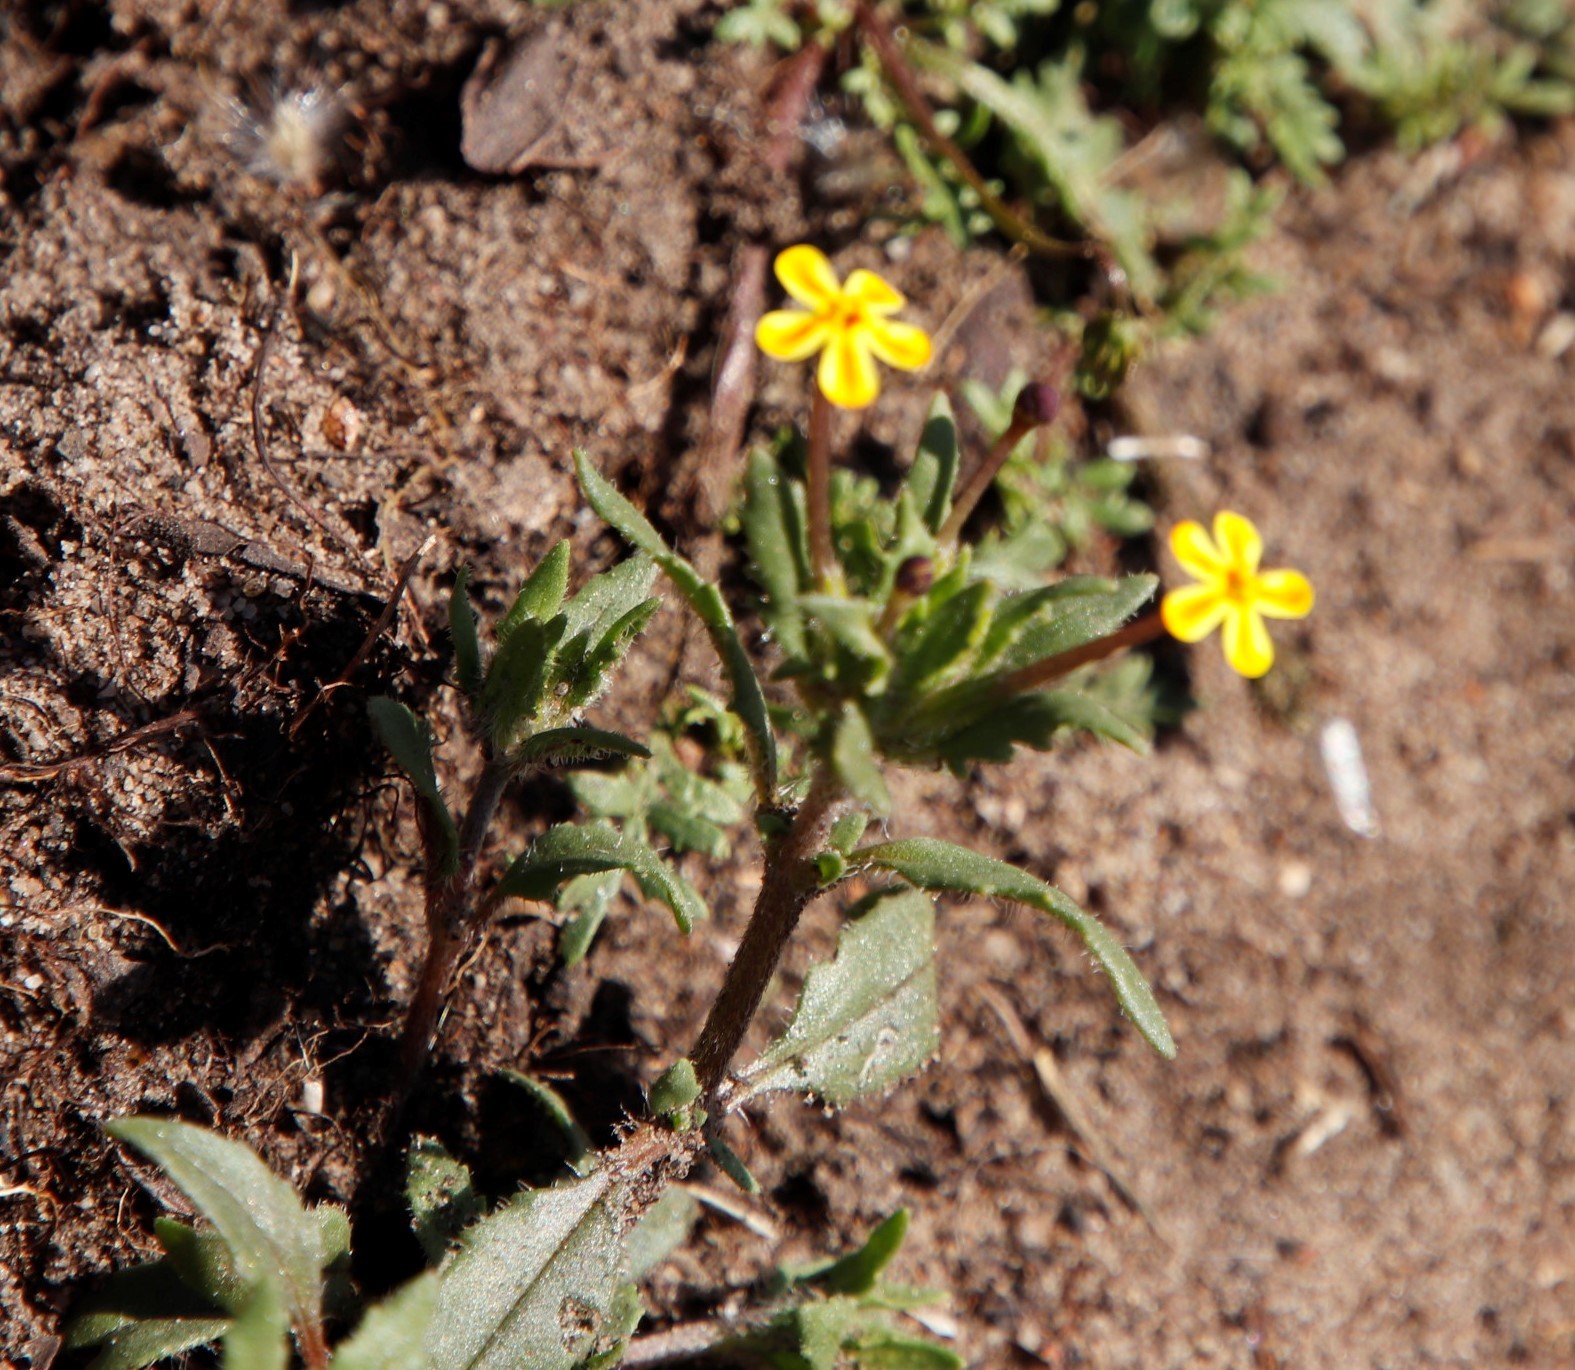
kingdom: Plantae
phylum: Tracheophyta
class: Magnoliopsida
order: Lamiales
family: Scrophulariaceae
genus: Zaluzianskya
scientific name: Zaluzianskya divaricata
